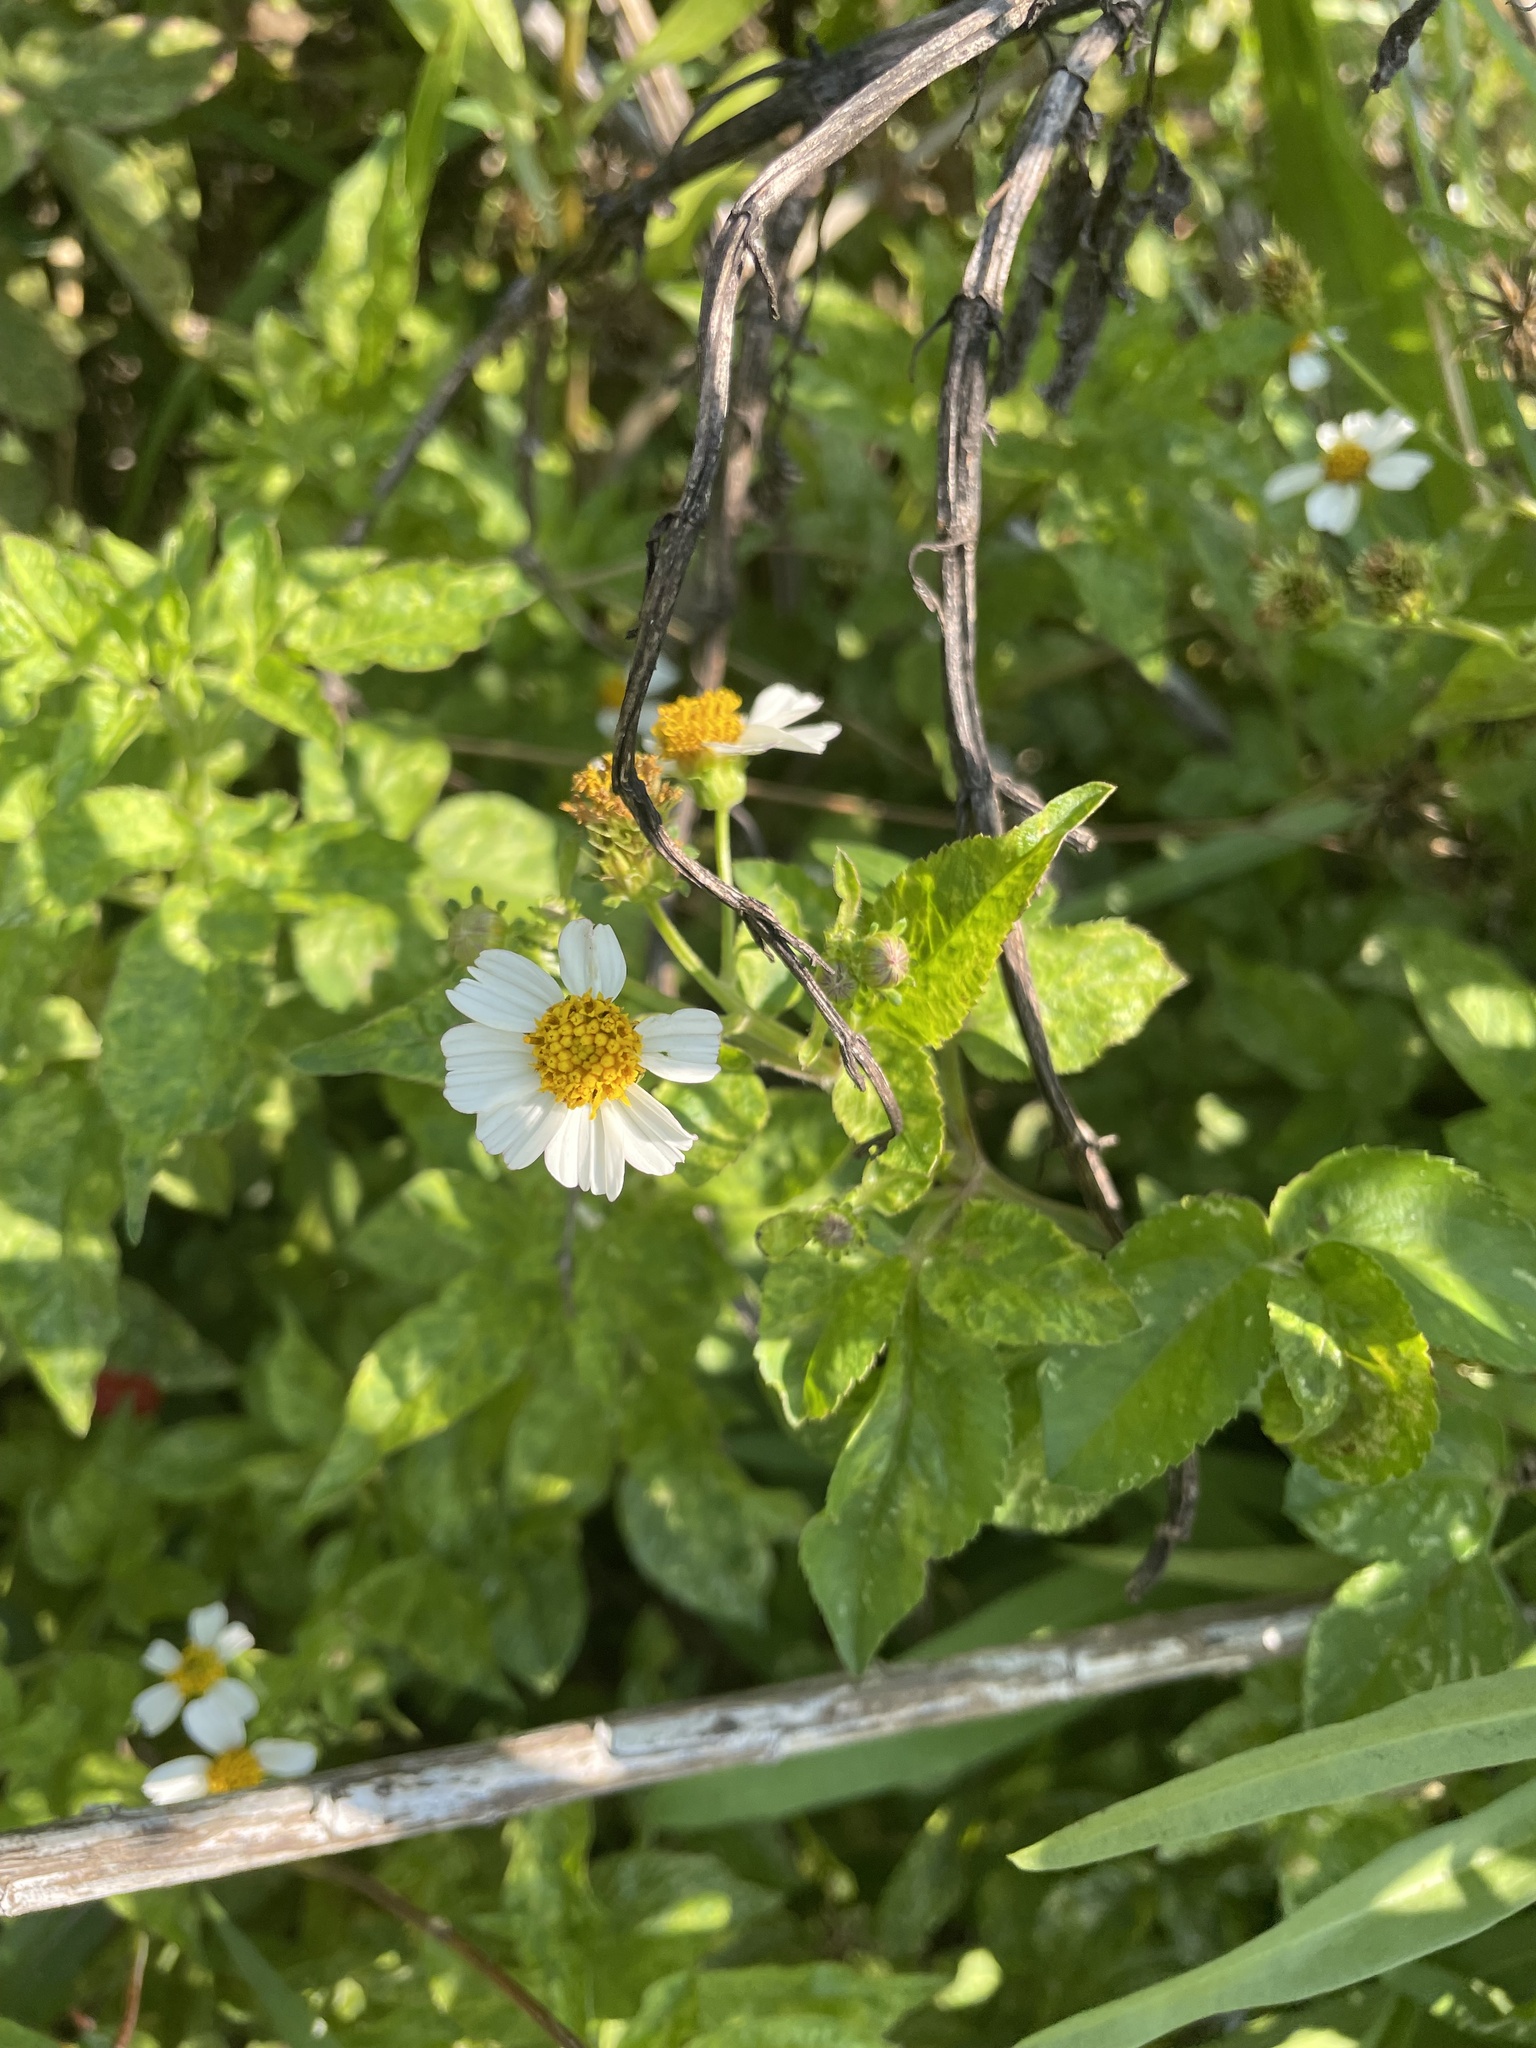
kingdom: Plantae
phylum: Tracheophyta
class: Magnoliopsida
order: Asterales
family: Asteraceae
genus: Bidens
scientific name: Bidens alba
